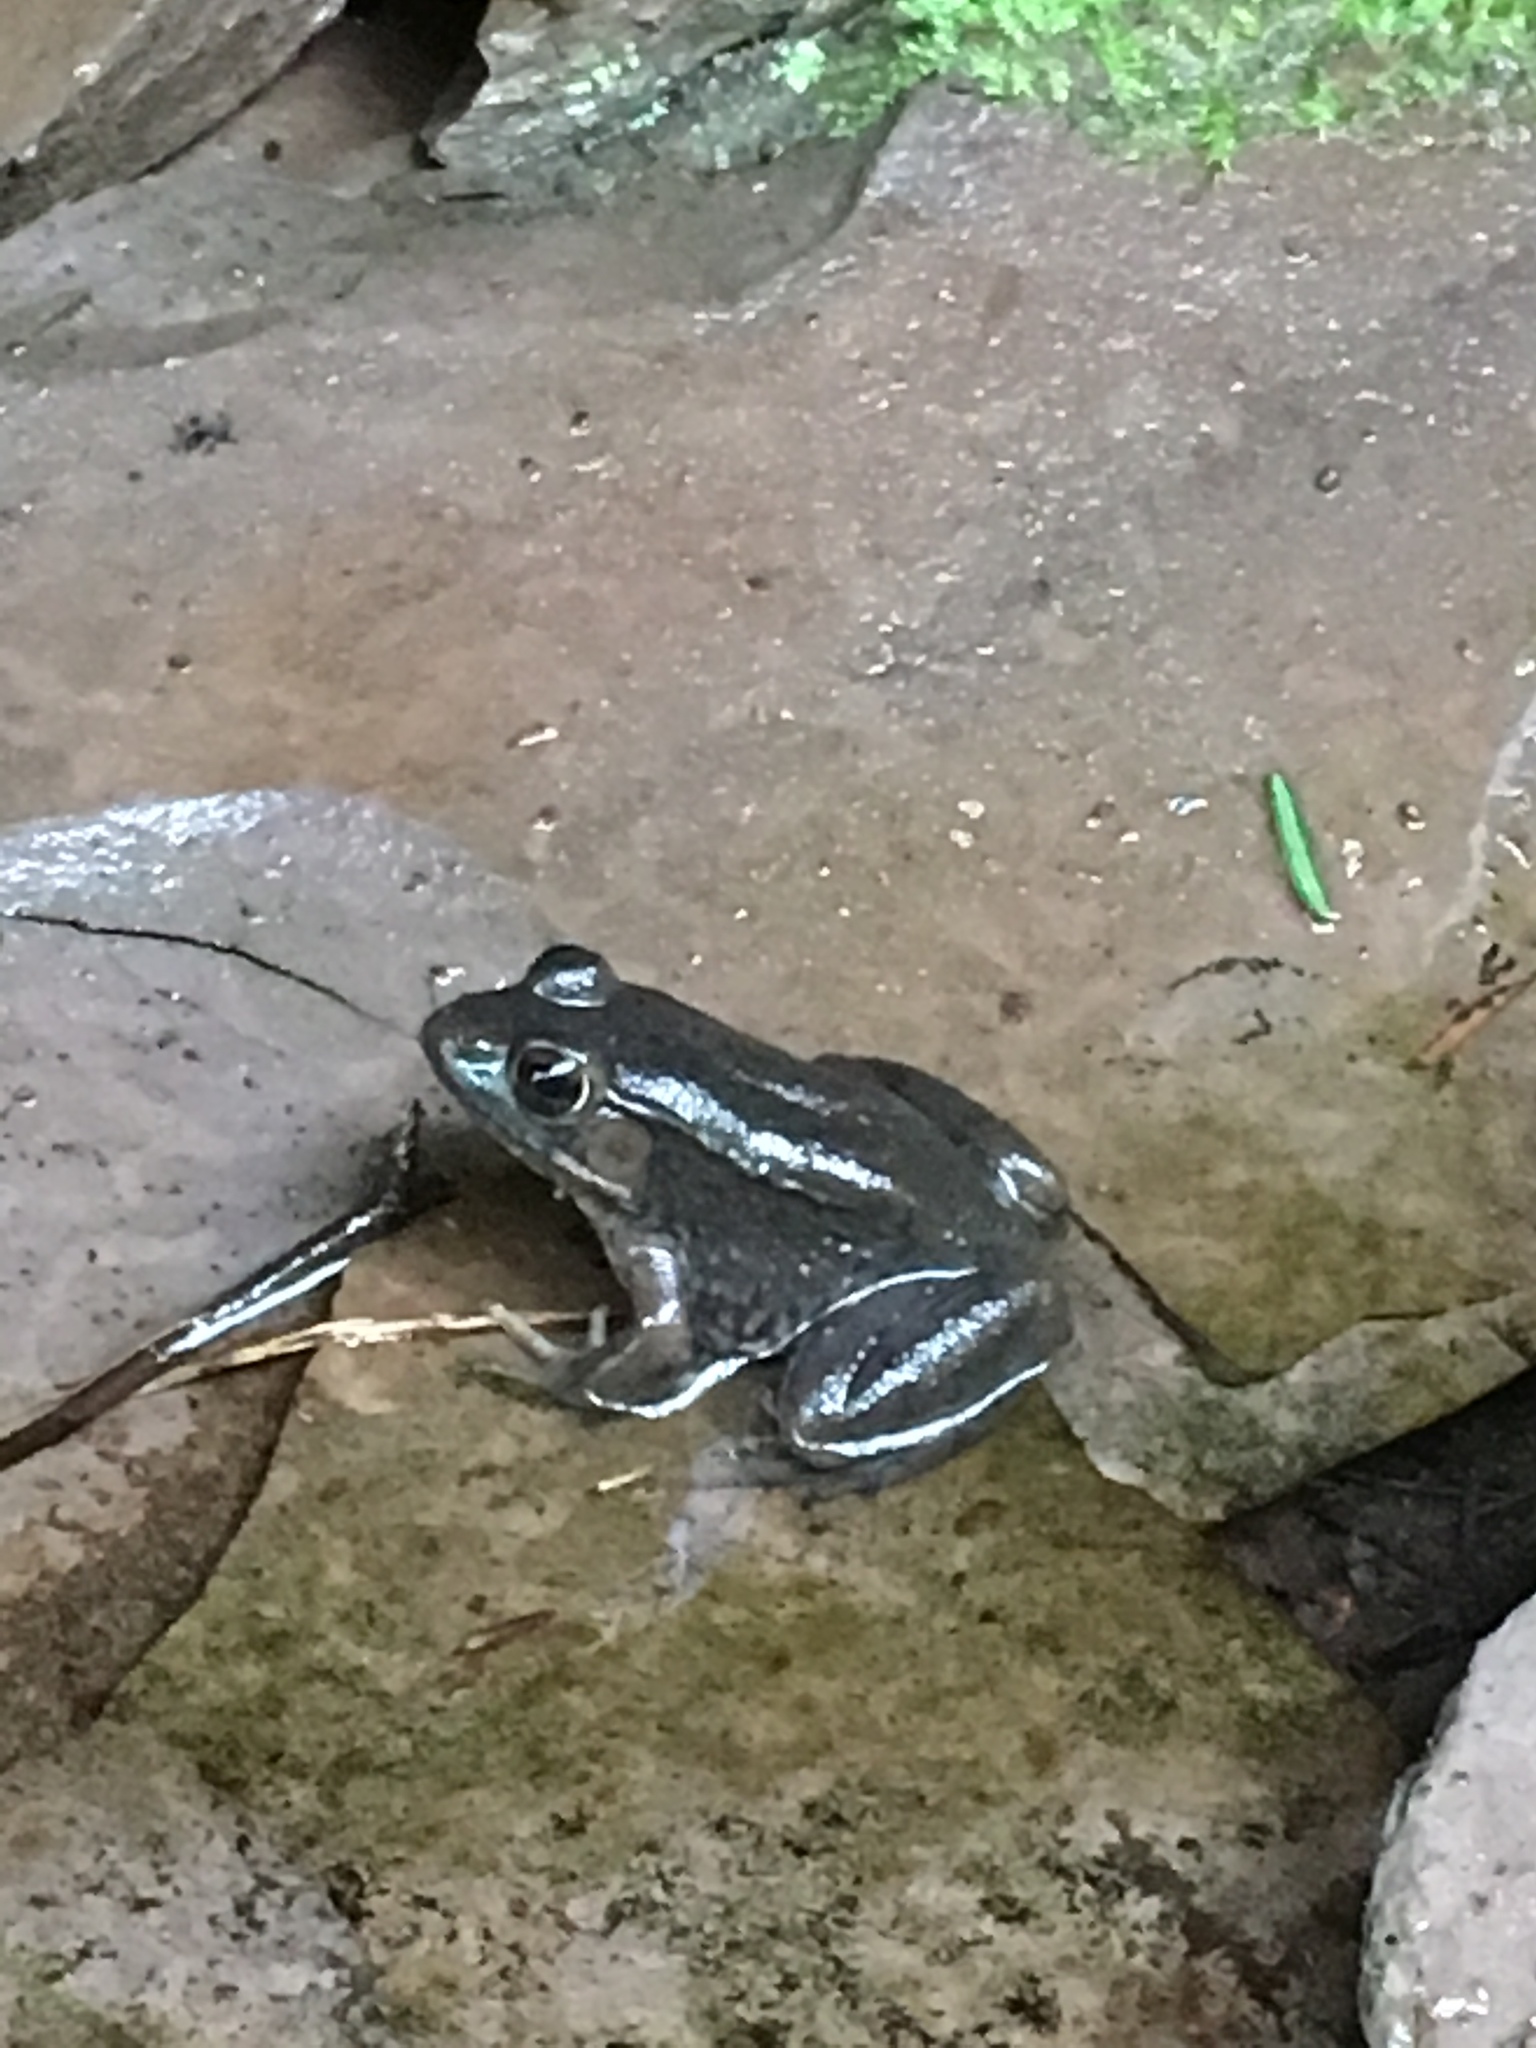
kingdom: Animalia
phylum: Chordata
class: Amphibia
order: Anura
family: Ranidae
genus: Lithobates
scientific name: Lithobates clamitans
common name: Green frog
